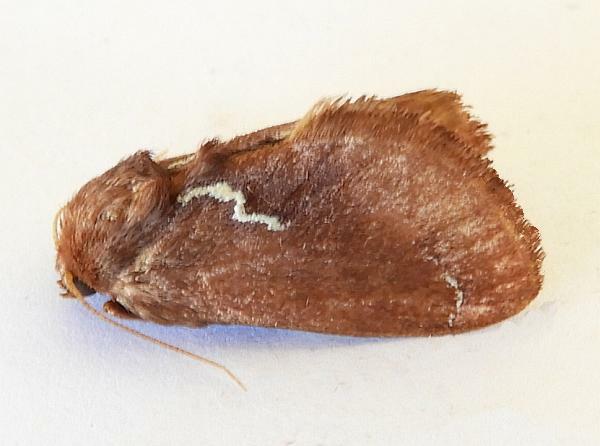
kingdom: Animalia
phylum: Arthropoda
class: Insecta
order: Lepidoptera
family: Limacodidae
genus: Euclea
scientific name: Euclea obliqua
